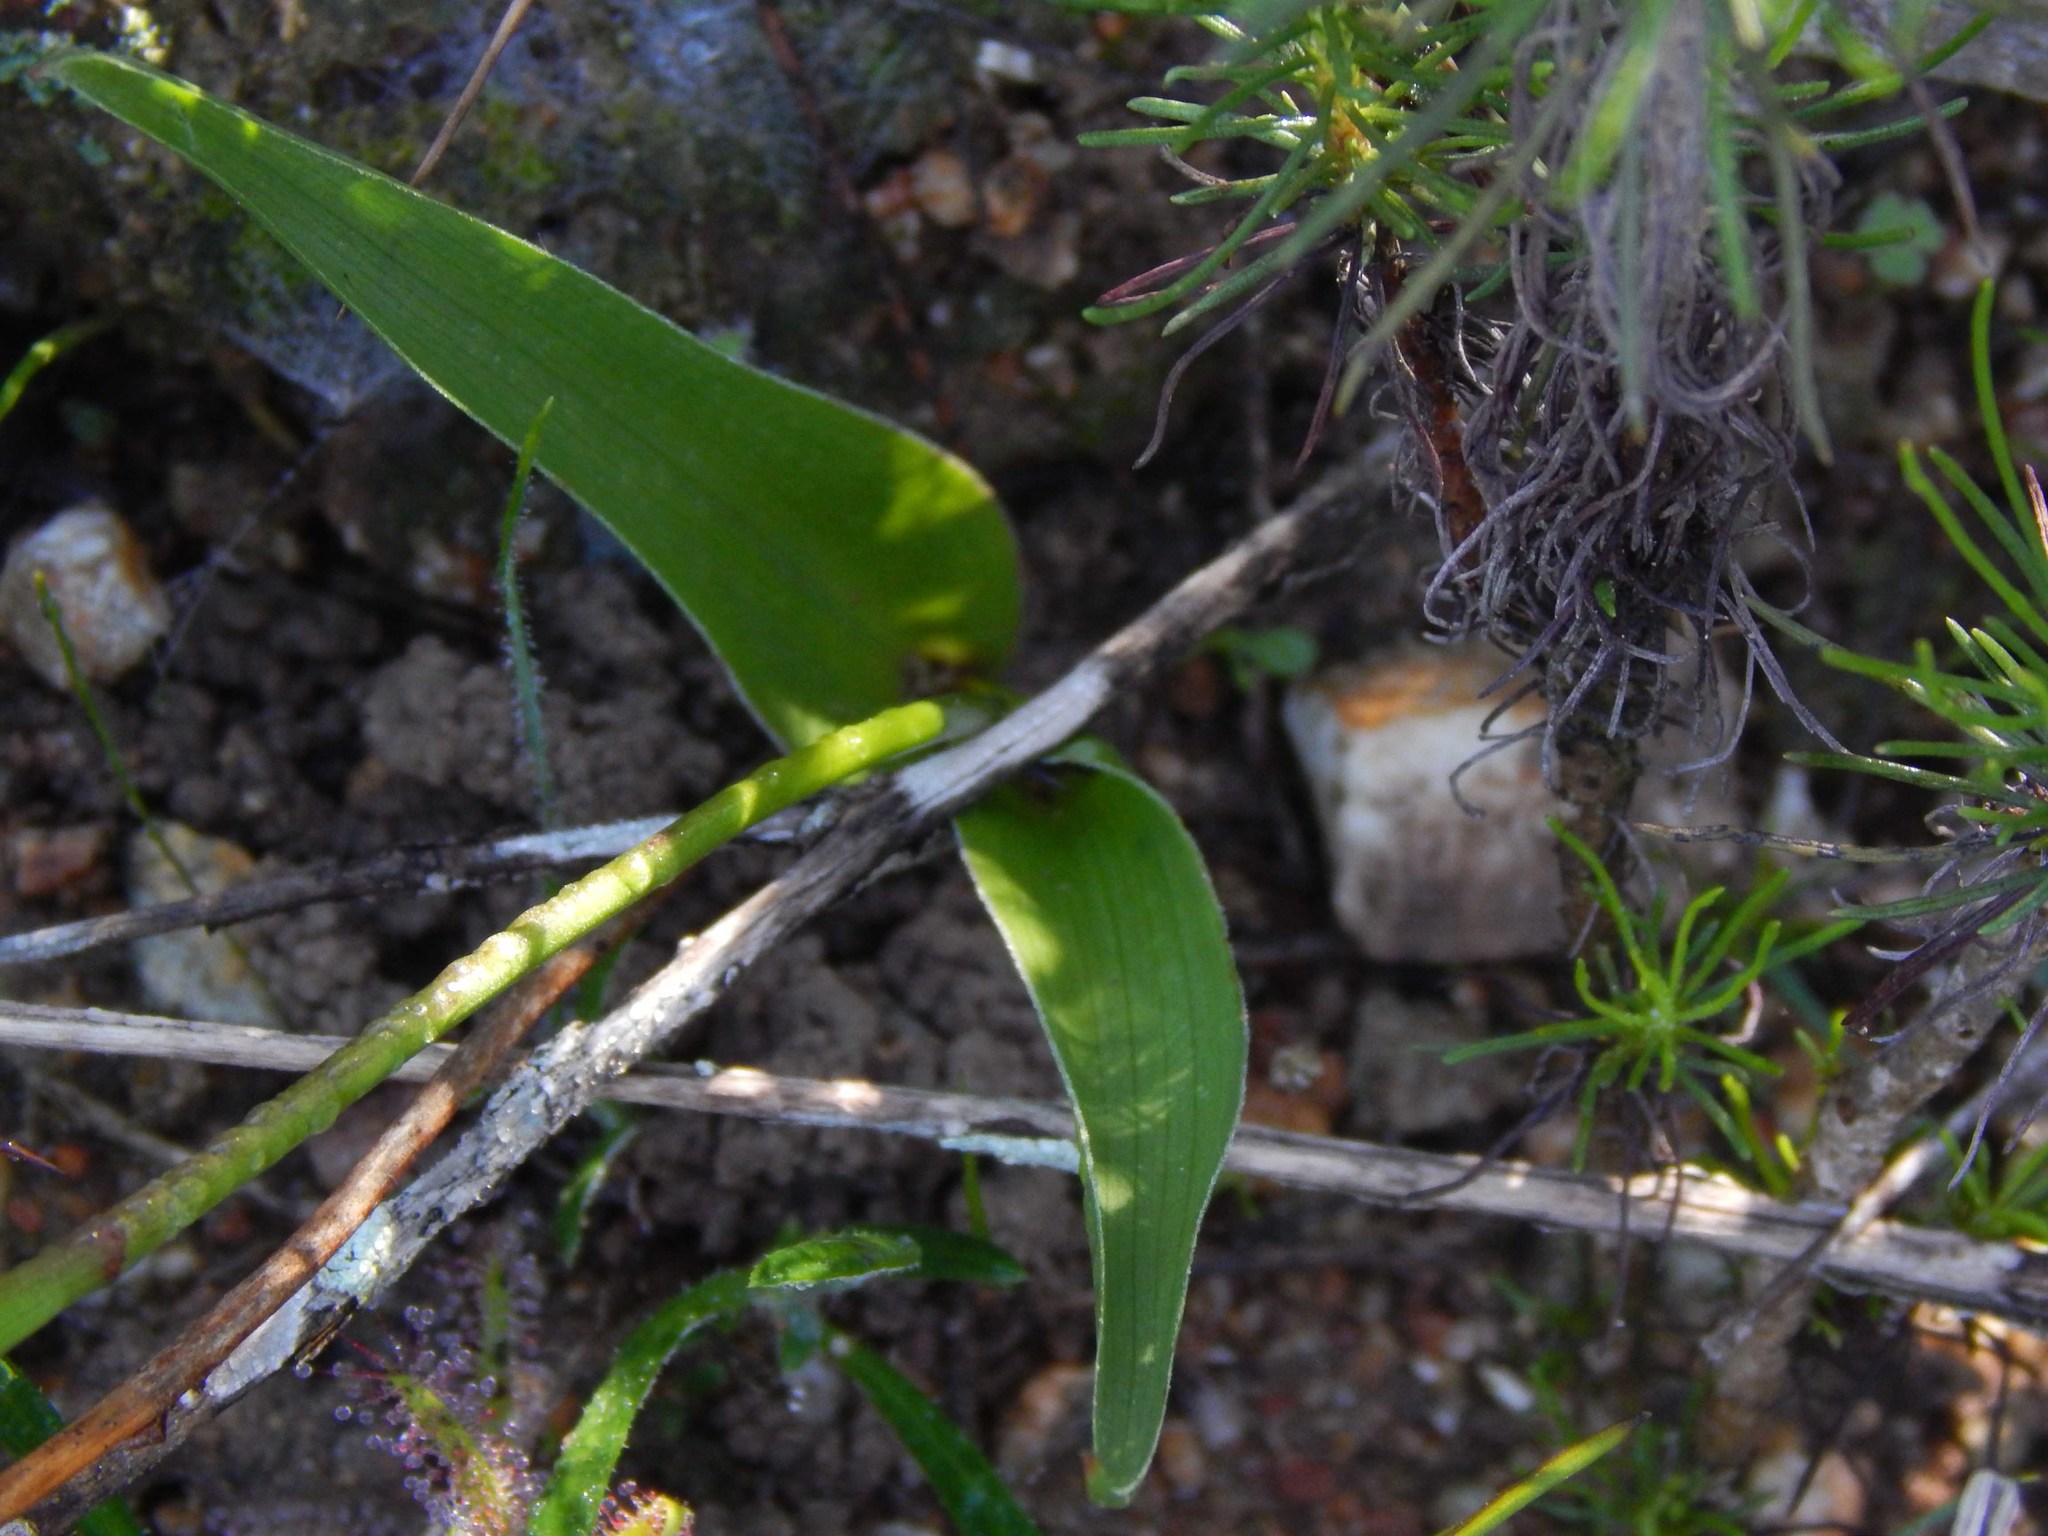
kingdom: Plantae
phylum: Tracheophyta
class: Liliopsida
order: Liliales
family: Colchicaceae
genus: Wurmbea
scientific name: Wurmbea punctata
